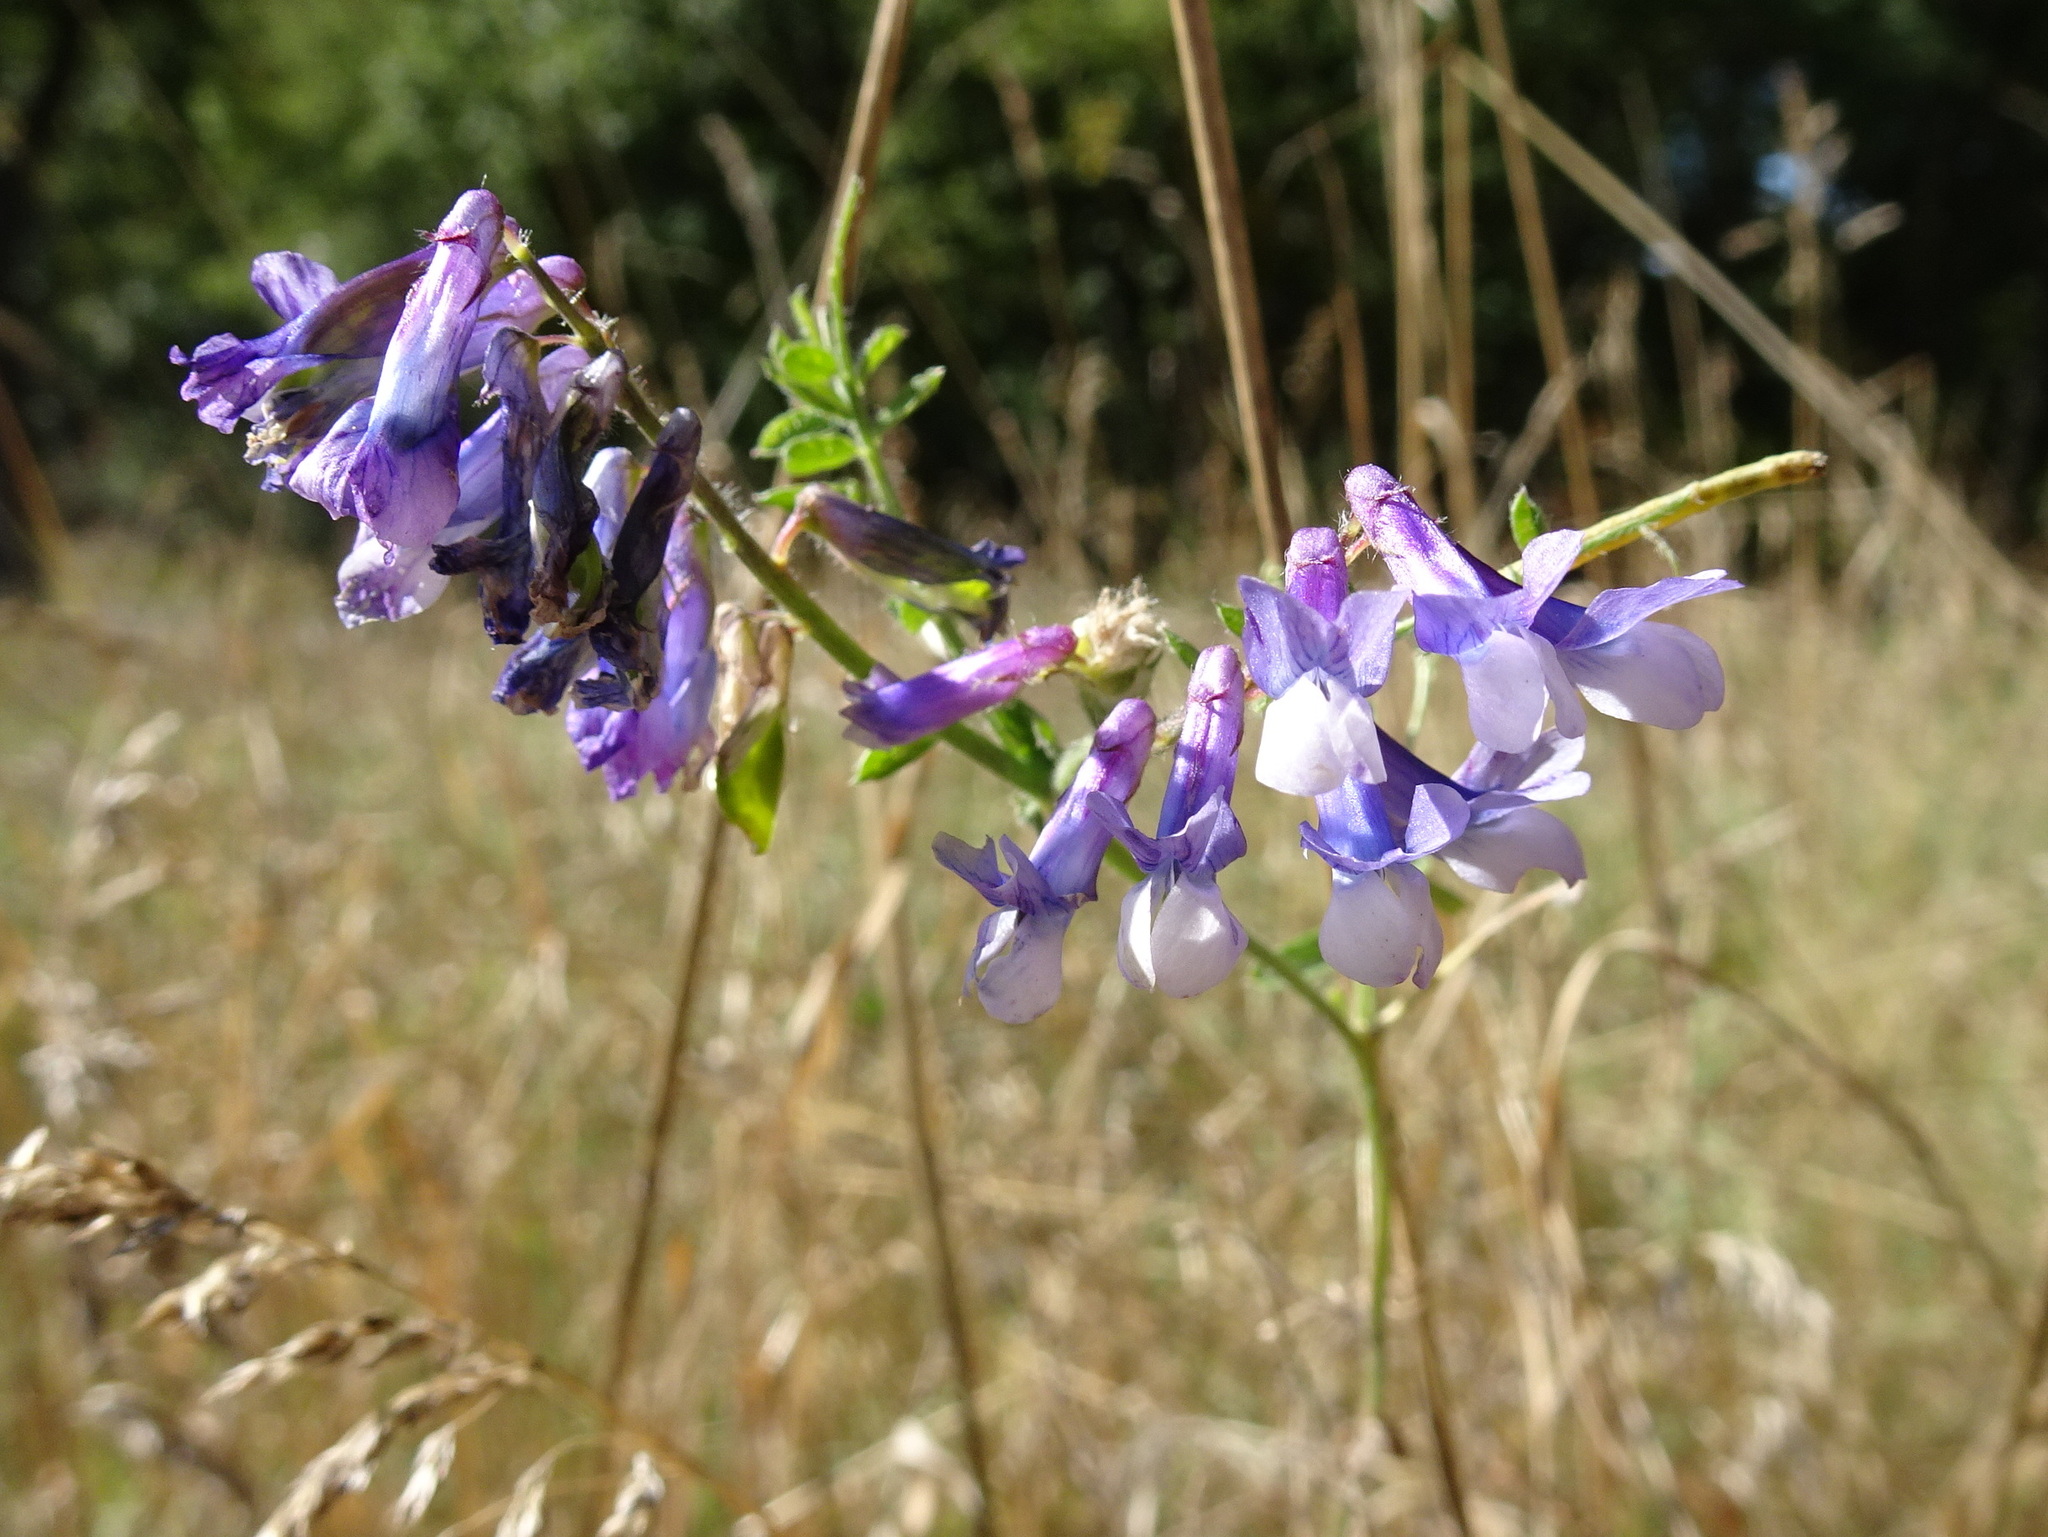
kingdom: Plantae
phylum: Tracheophyta
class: Magnoliopsida
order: Fabales
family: Fabaceae
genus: Vicia
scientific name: Vicia villosa
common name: Fodder vetch
